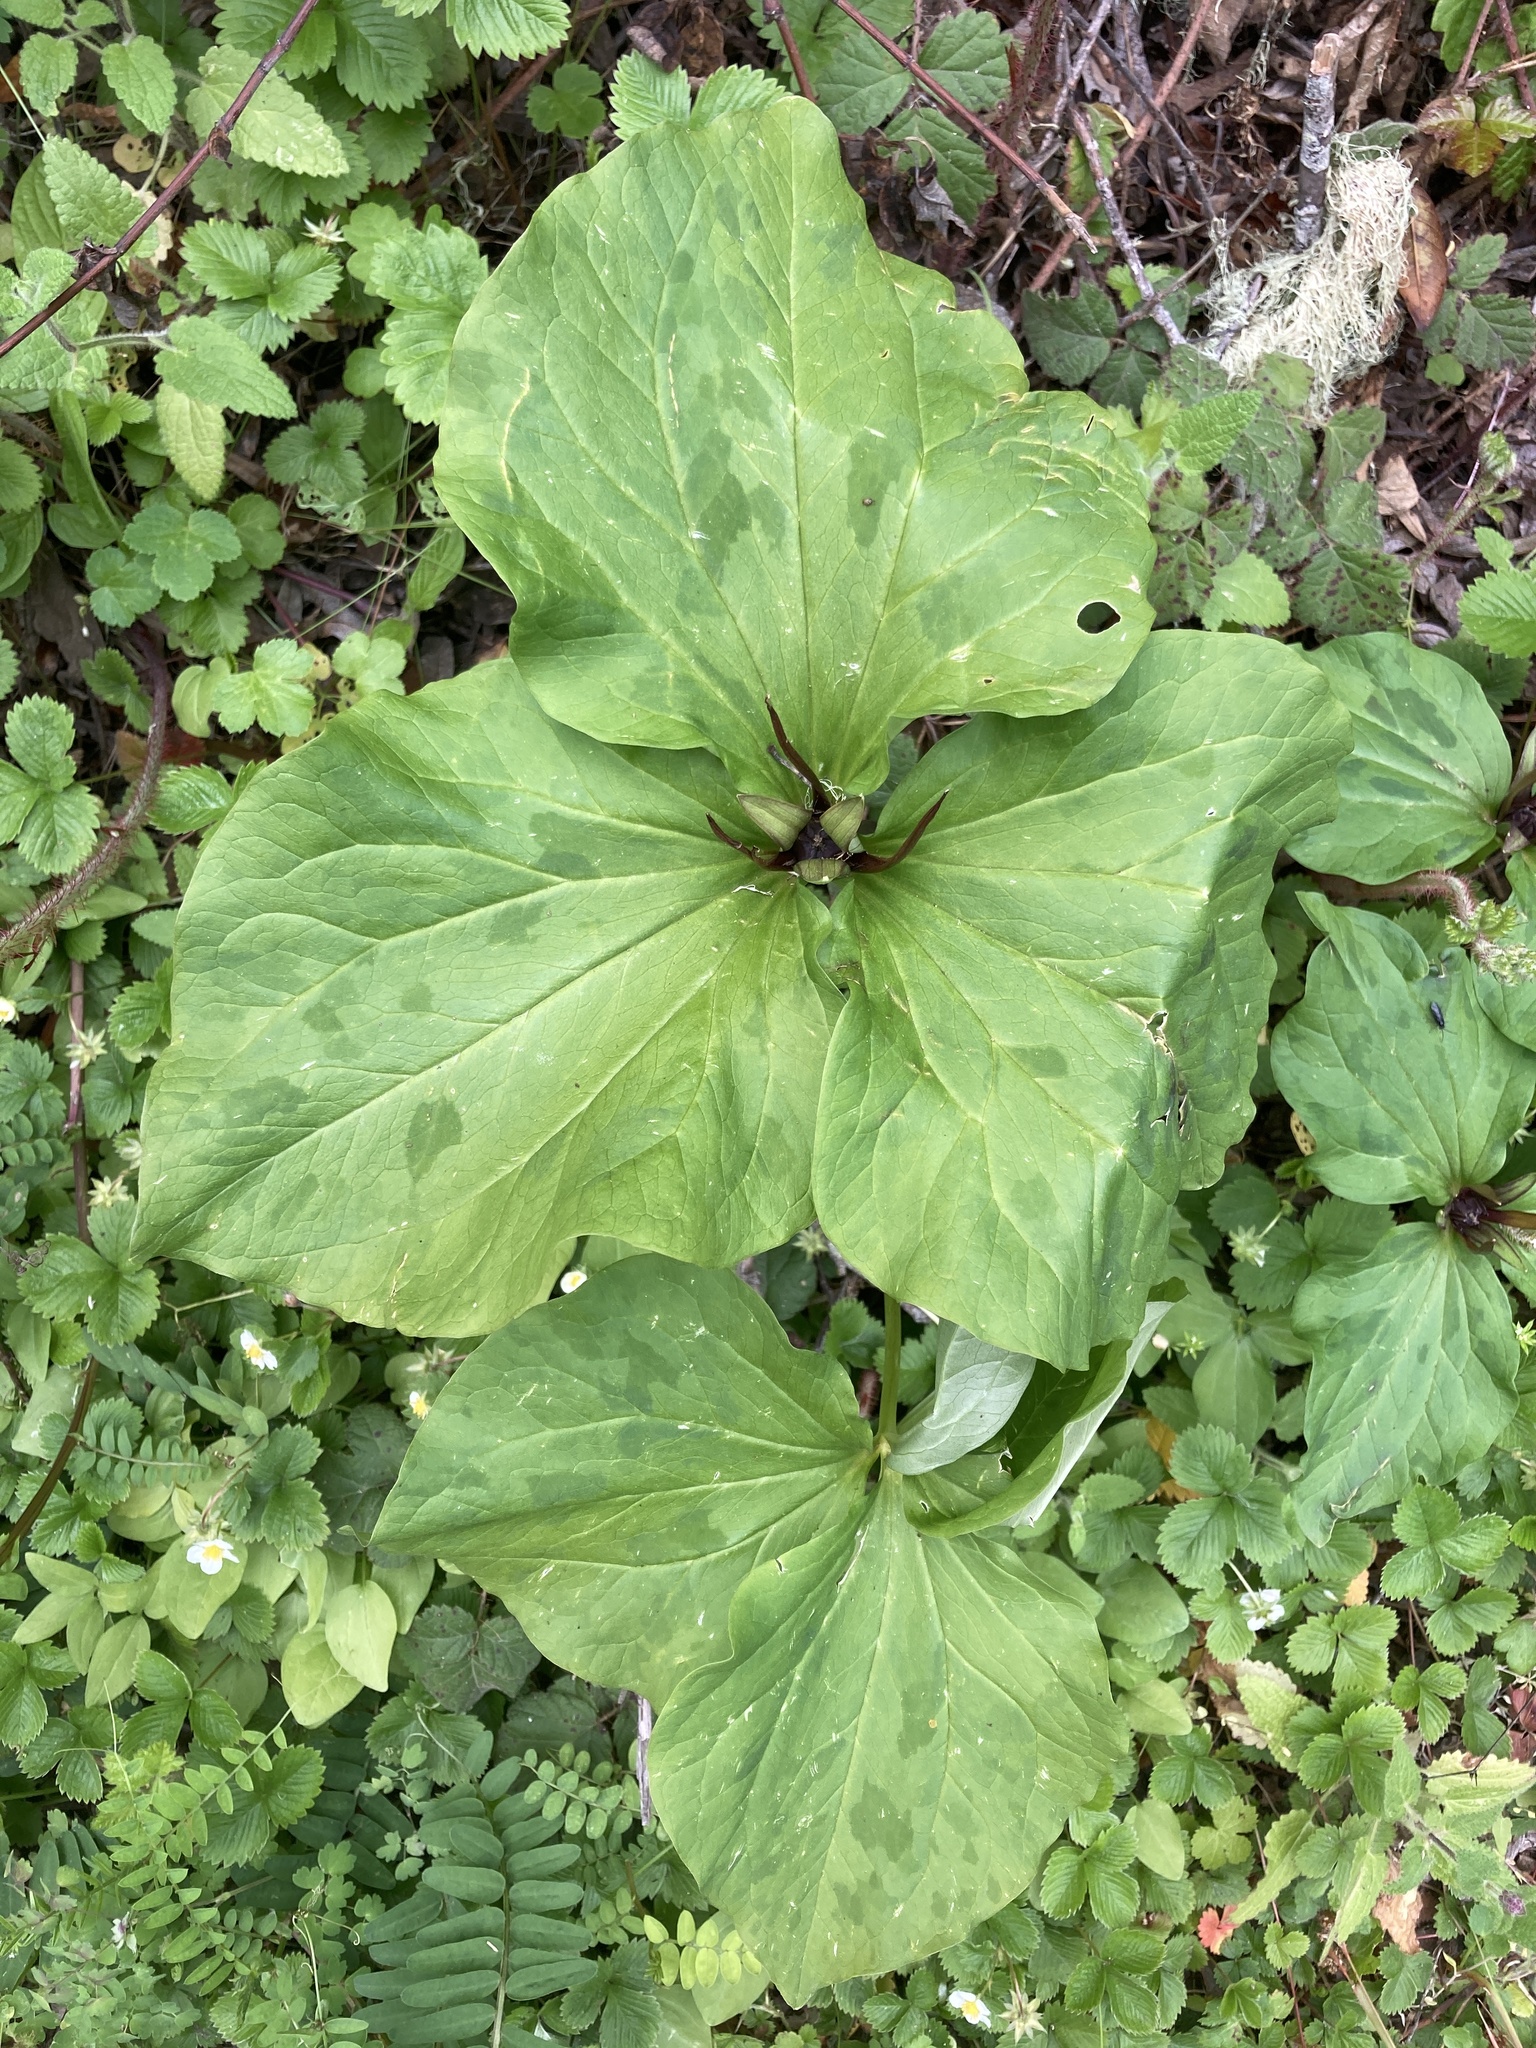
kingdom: Plantae
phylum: Tracheophyta
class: Liliopsida
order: Liliales
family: Melanthiaceae
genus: Trillium
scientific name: Trillium angustipetalum
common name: Narrow-petaled trillium
